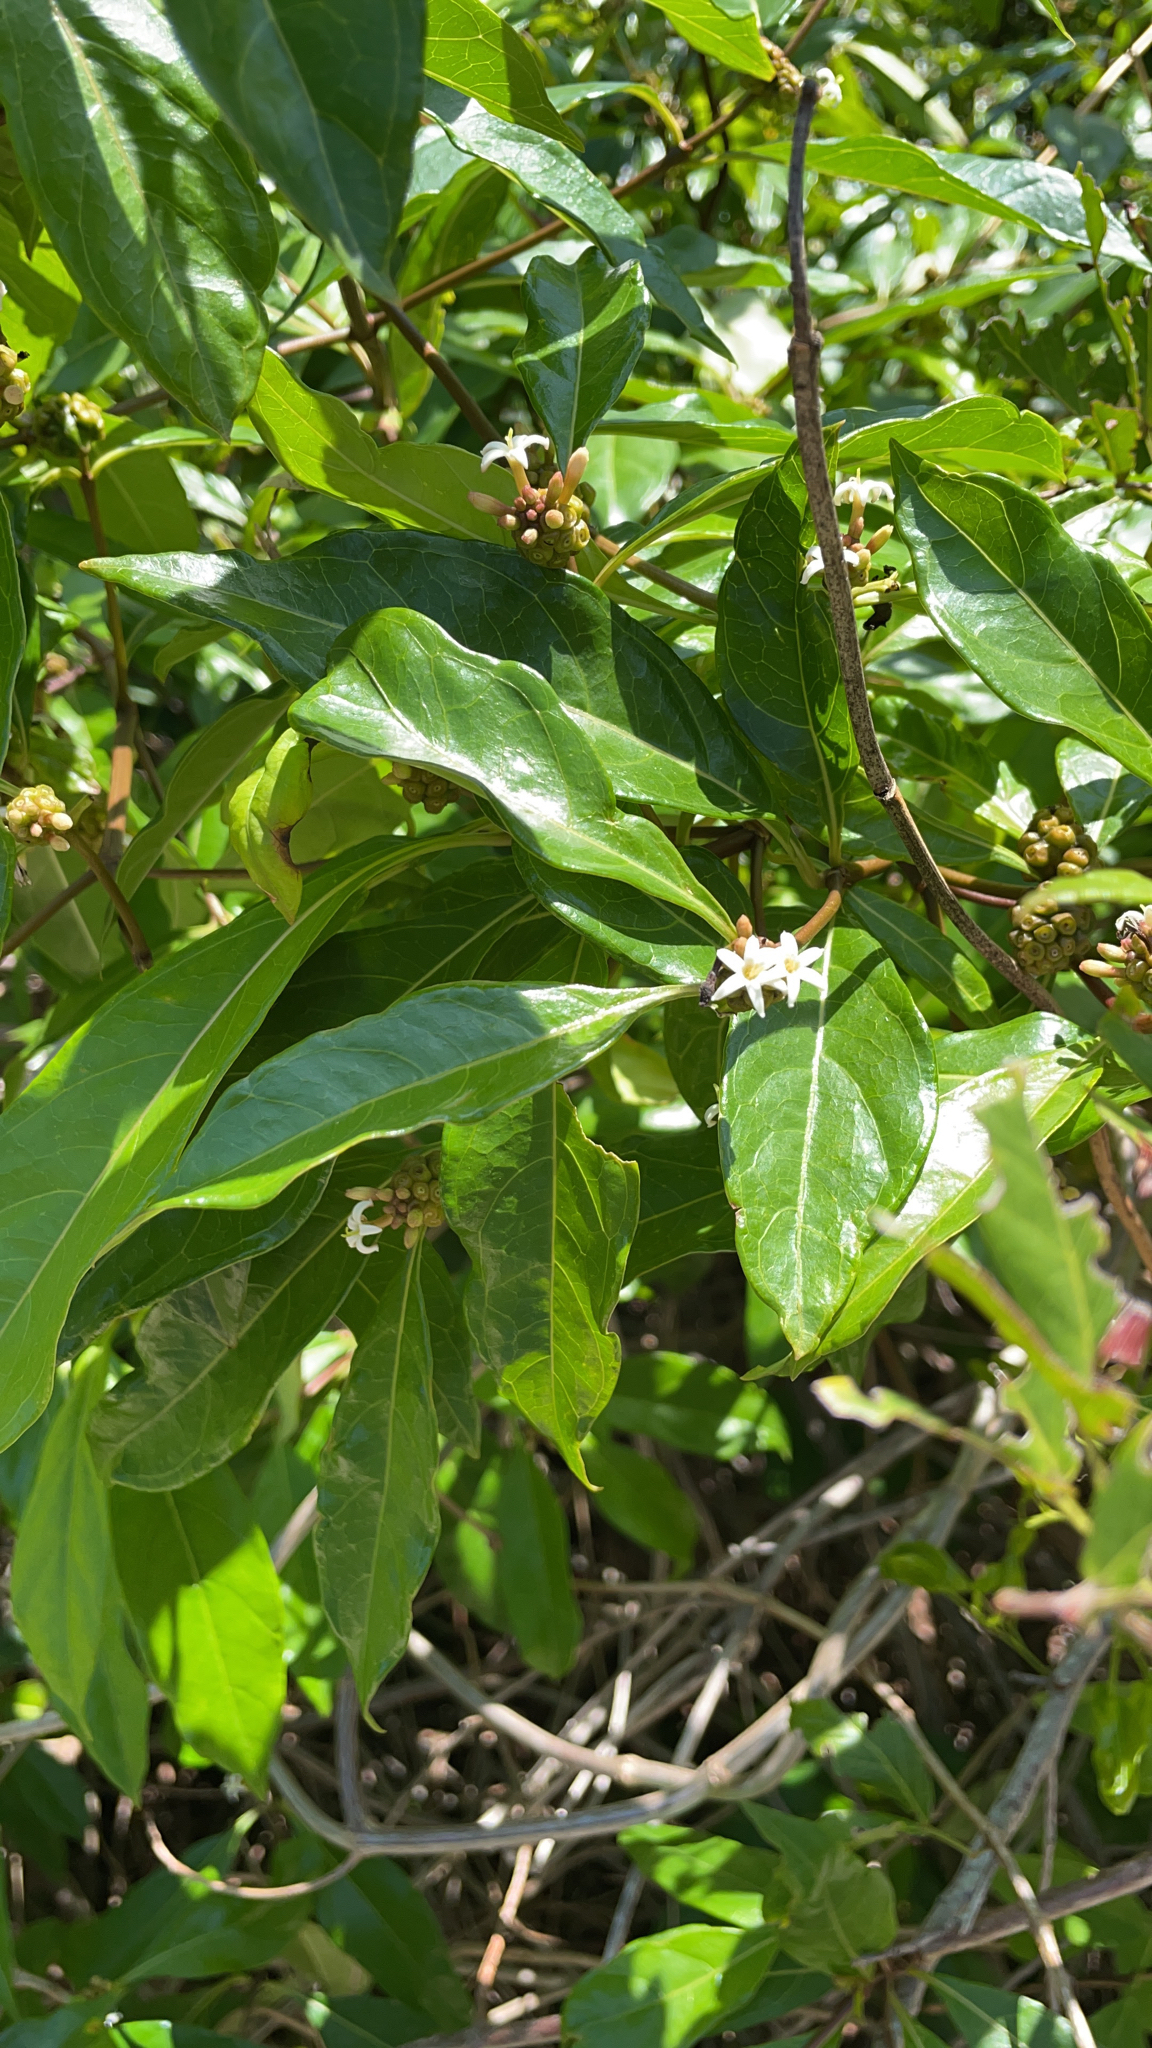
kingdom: Plantae
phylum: Tracheophyta
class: Magnoliopsida
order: Gentianales
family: Rubiaceae
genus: Morinda
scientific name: Morinda royoc
